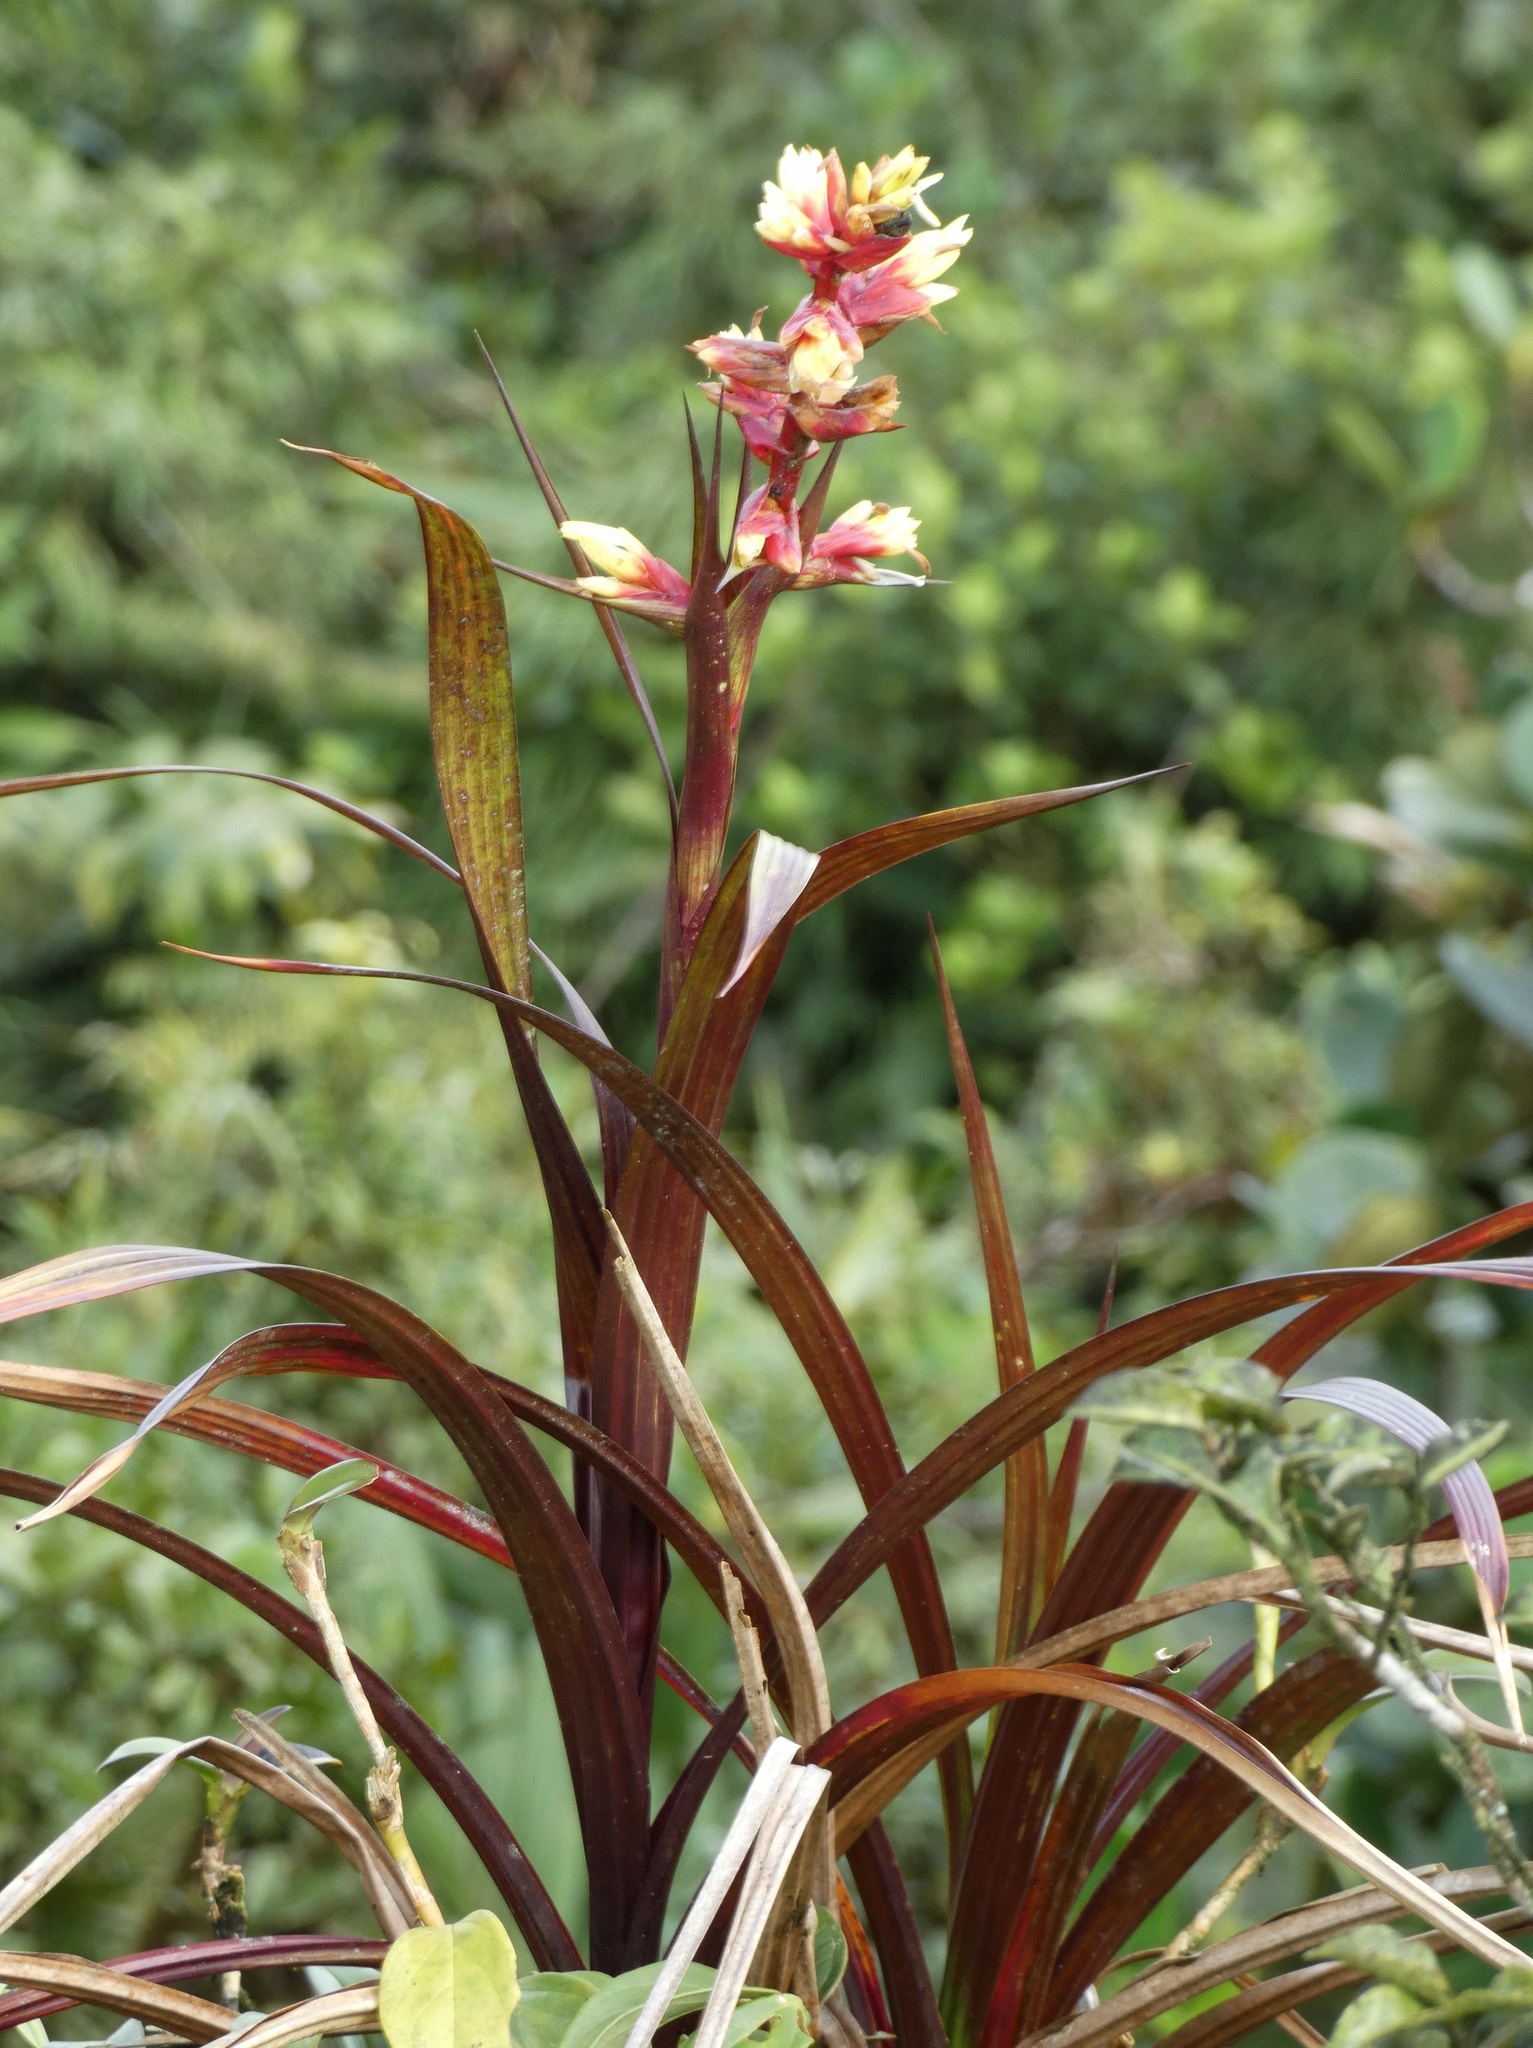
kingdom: Plantae
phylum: Tracheophyta
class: Liliopsida
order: Poales
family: Bromeliaceae
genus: Guzmania
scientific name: Guzmania calamifolia
